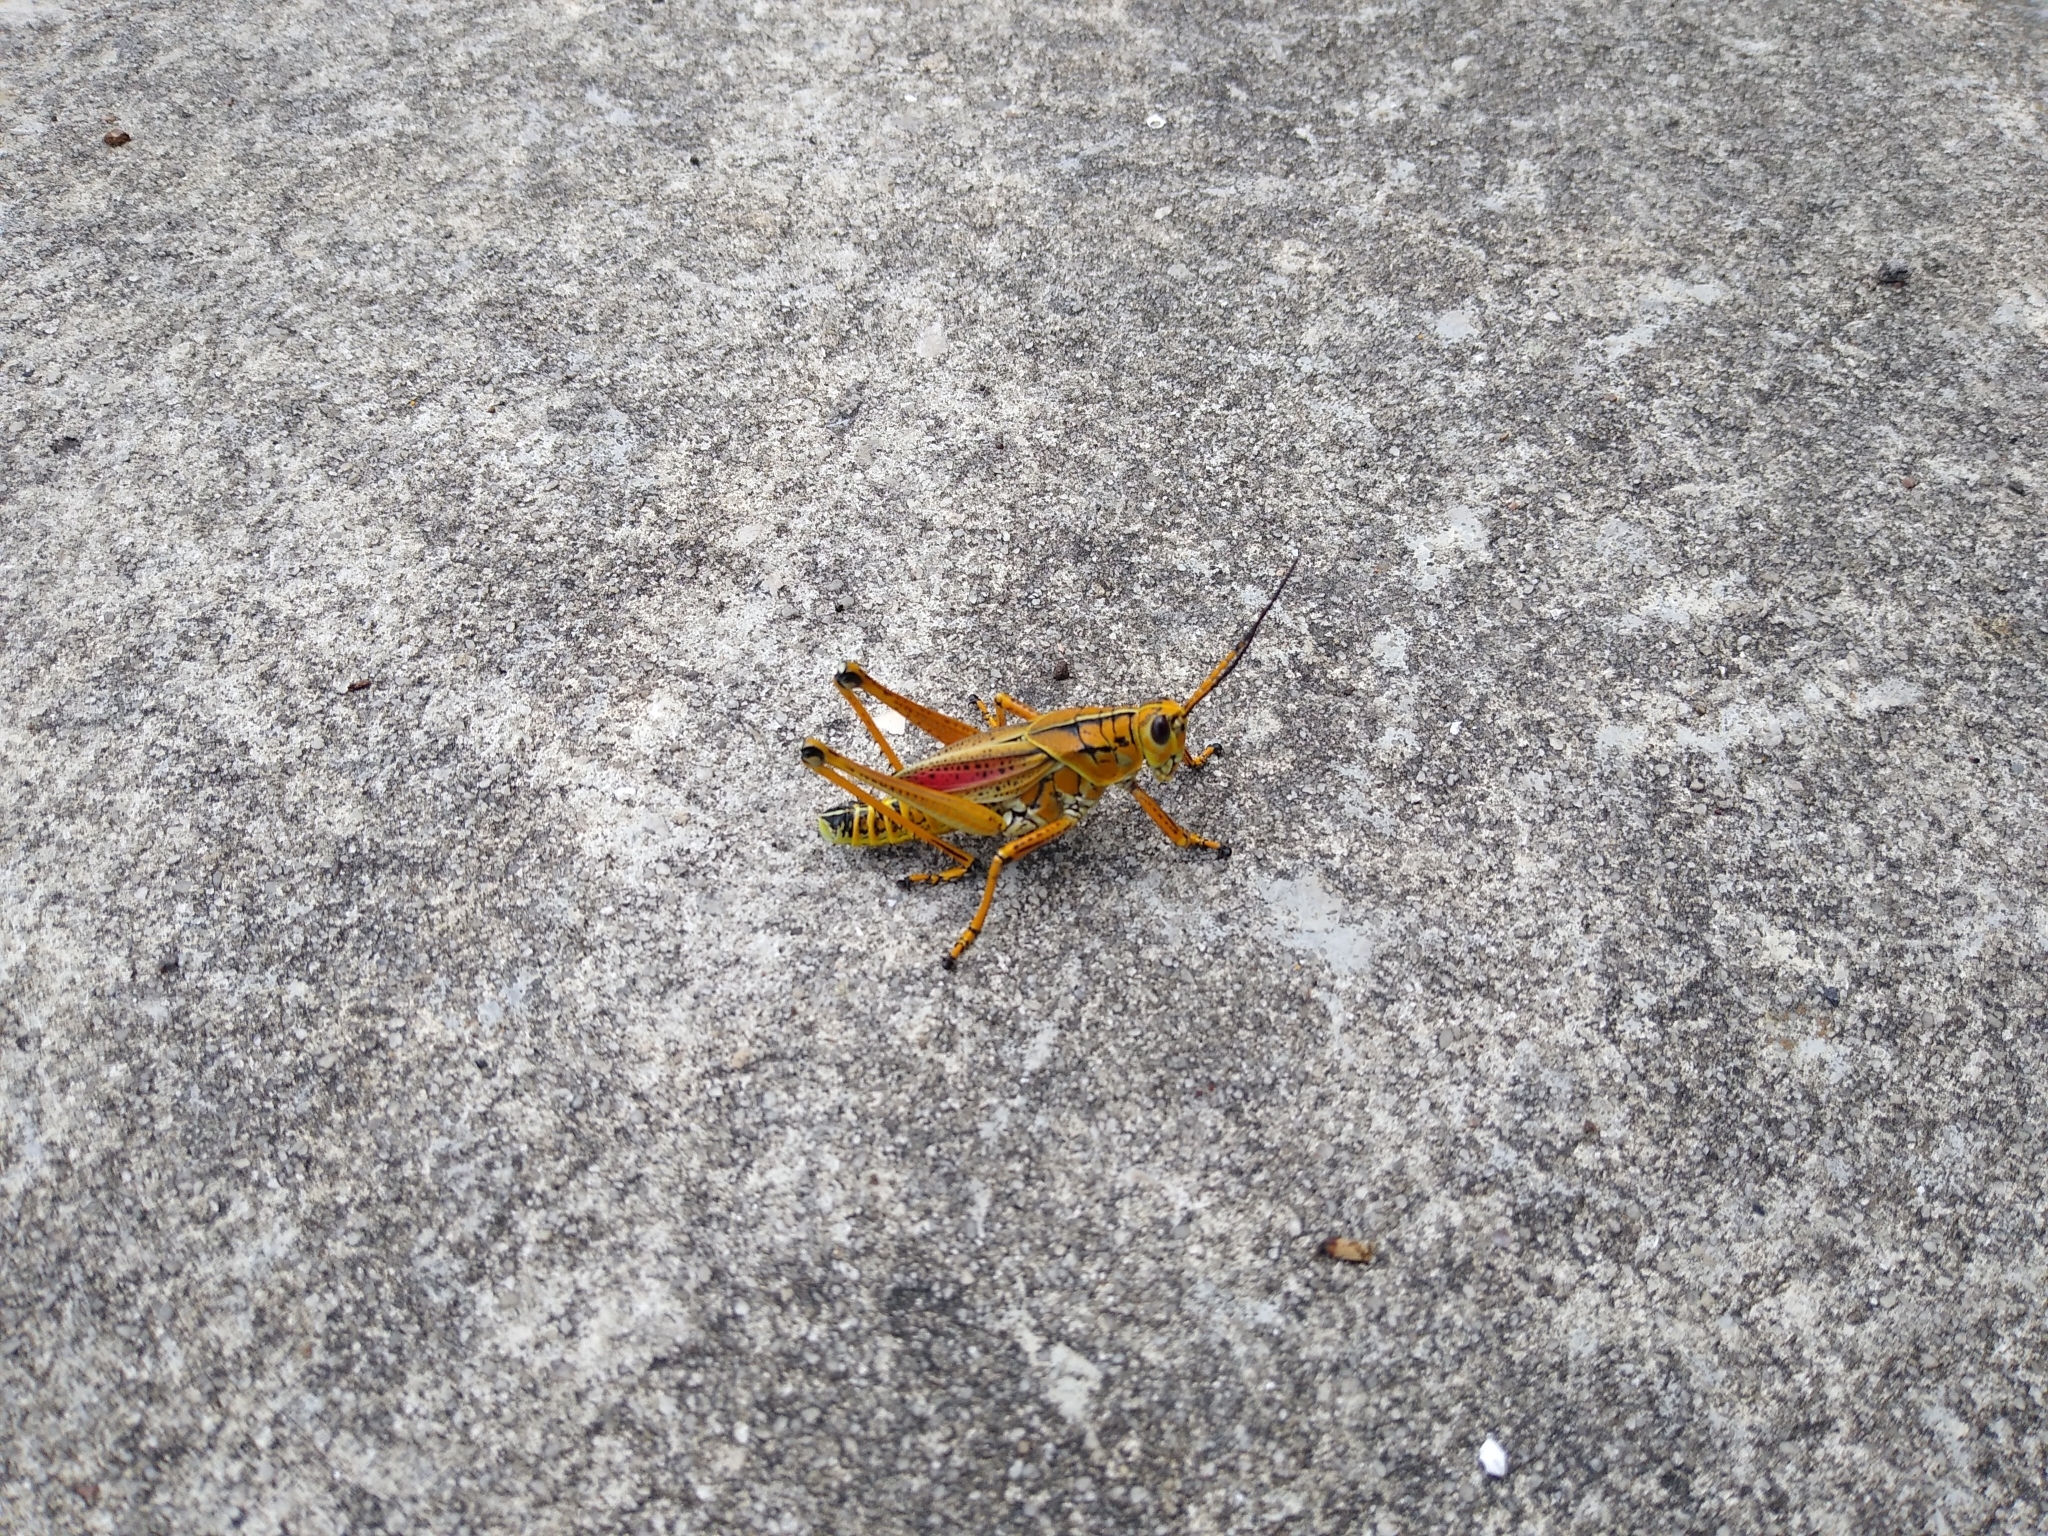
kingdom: Animalia
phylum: Arthropoda
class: Insecta
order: Orthoptera
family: Romaleidae
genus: Romalea
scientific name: Romalea microptera
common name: Eastern lubber grasshopper
